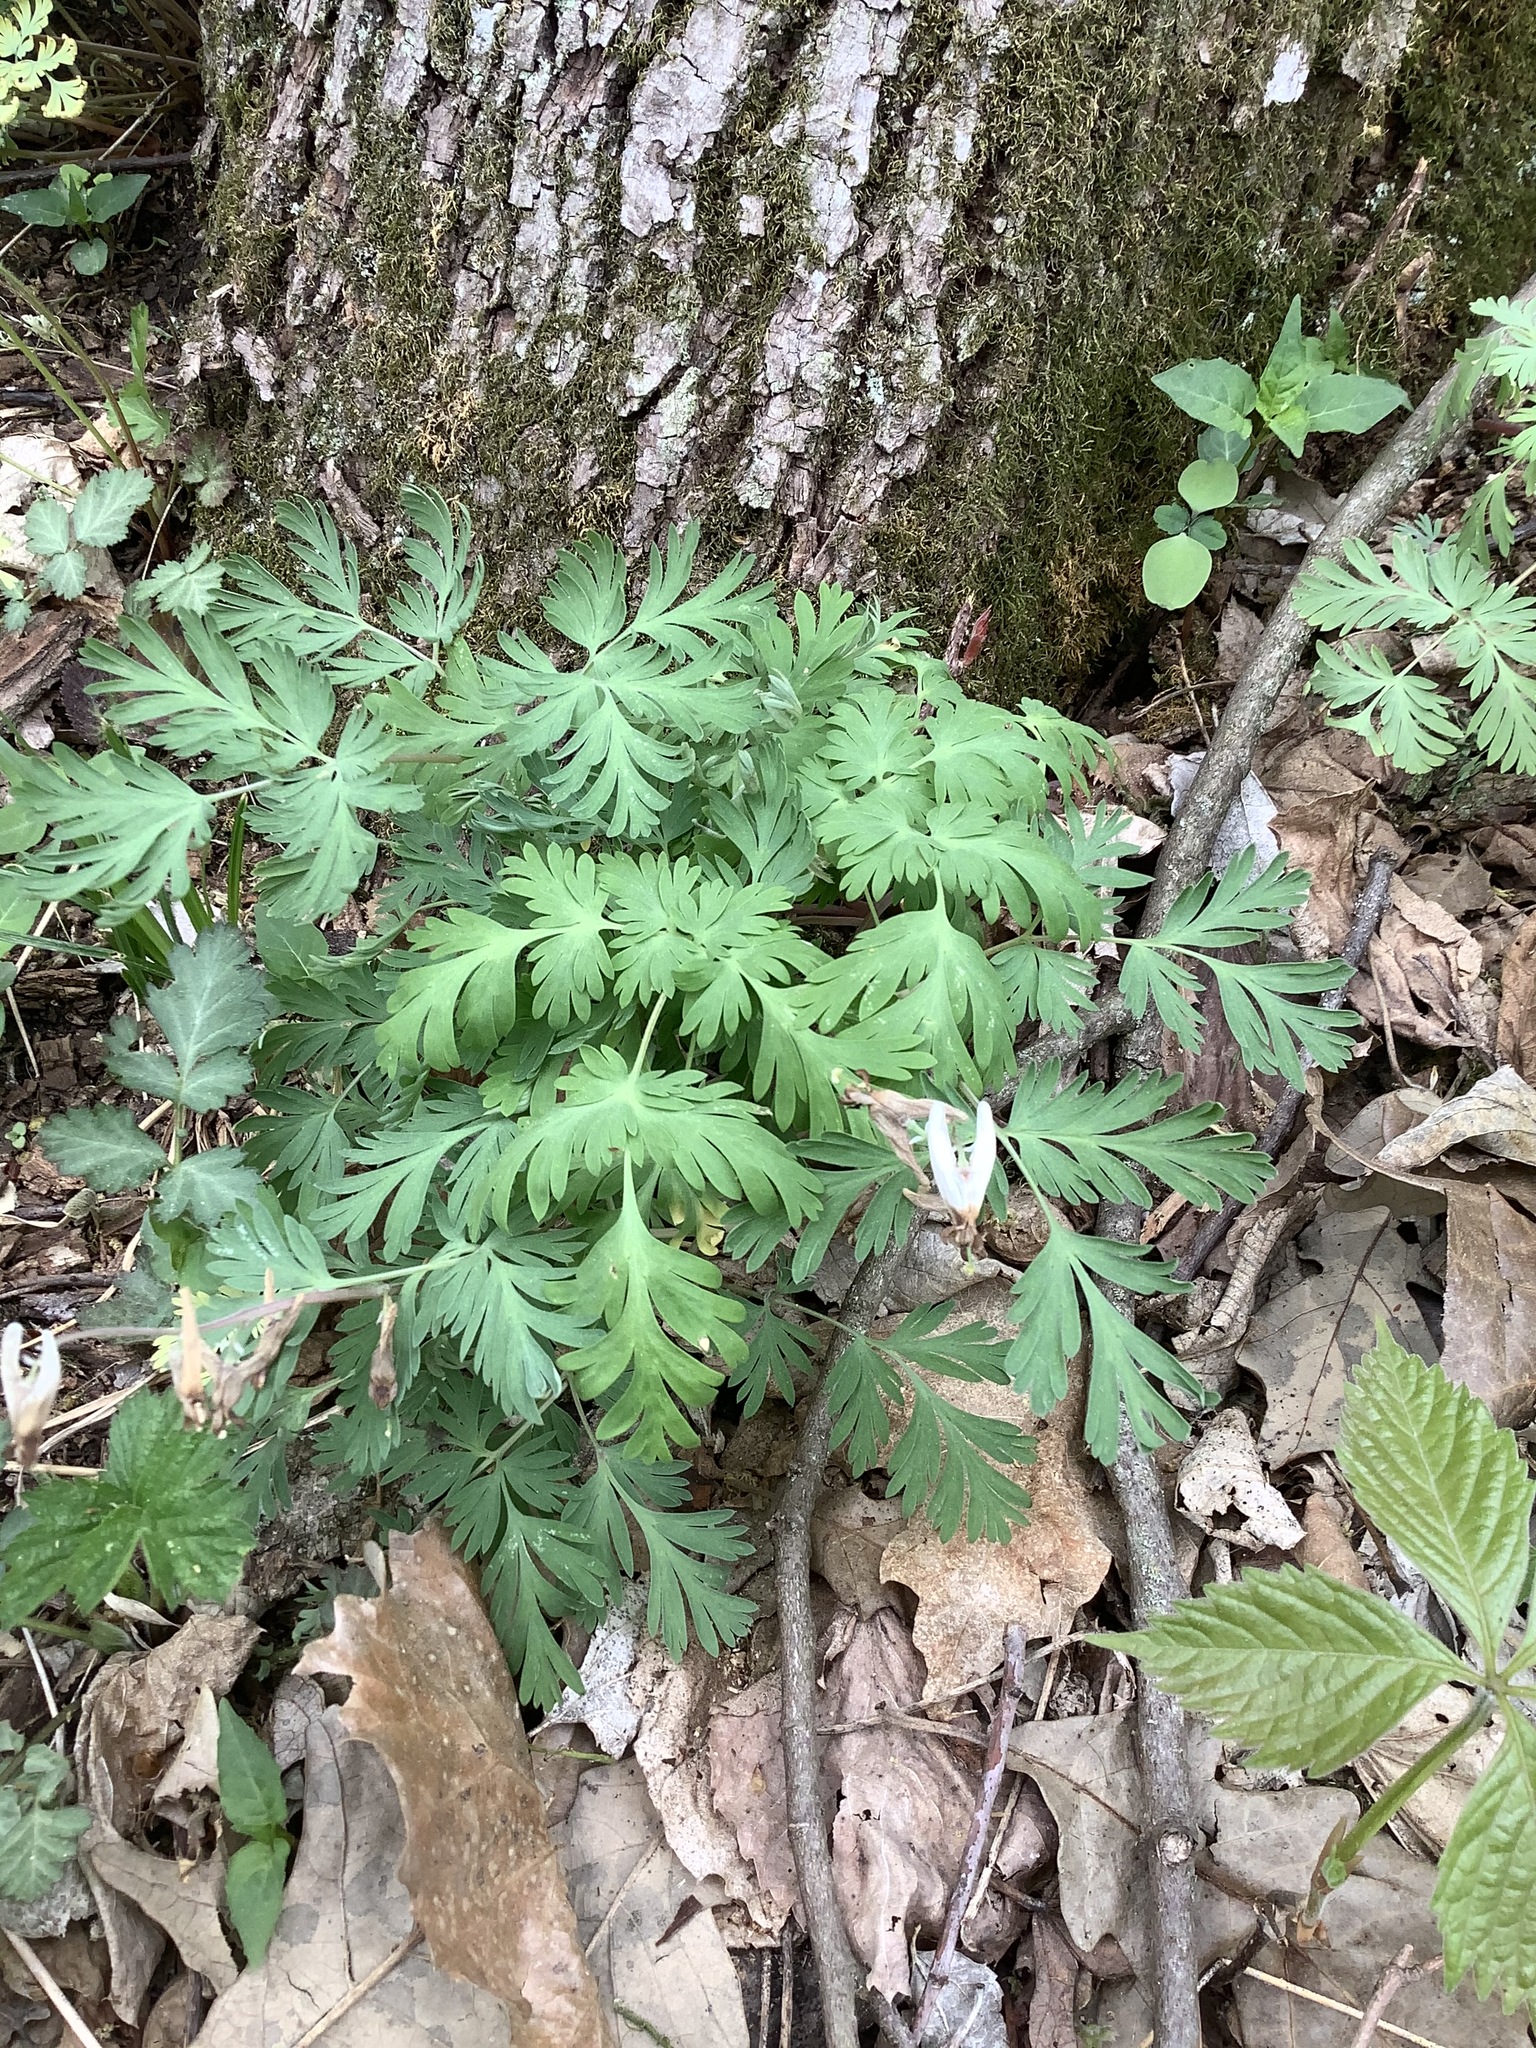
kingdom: Plantae
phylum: Tracheophyta
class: Magnoliopsida
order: Ranunculales
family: Papaveraceae
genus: Dicentra
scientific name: Dicentra cucullaria
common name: Dutchman's breeches
